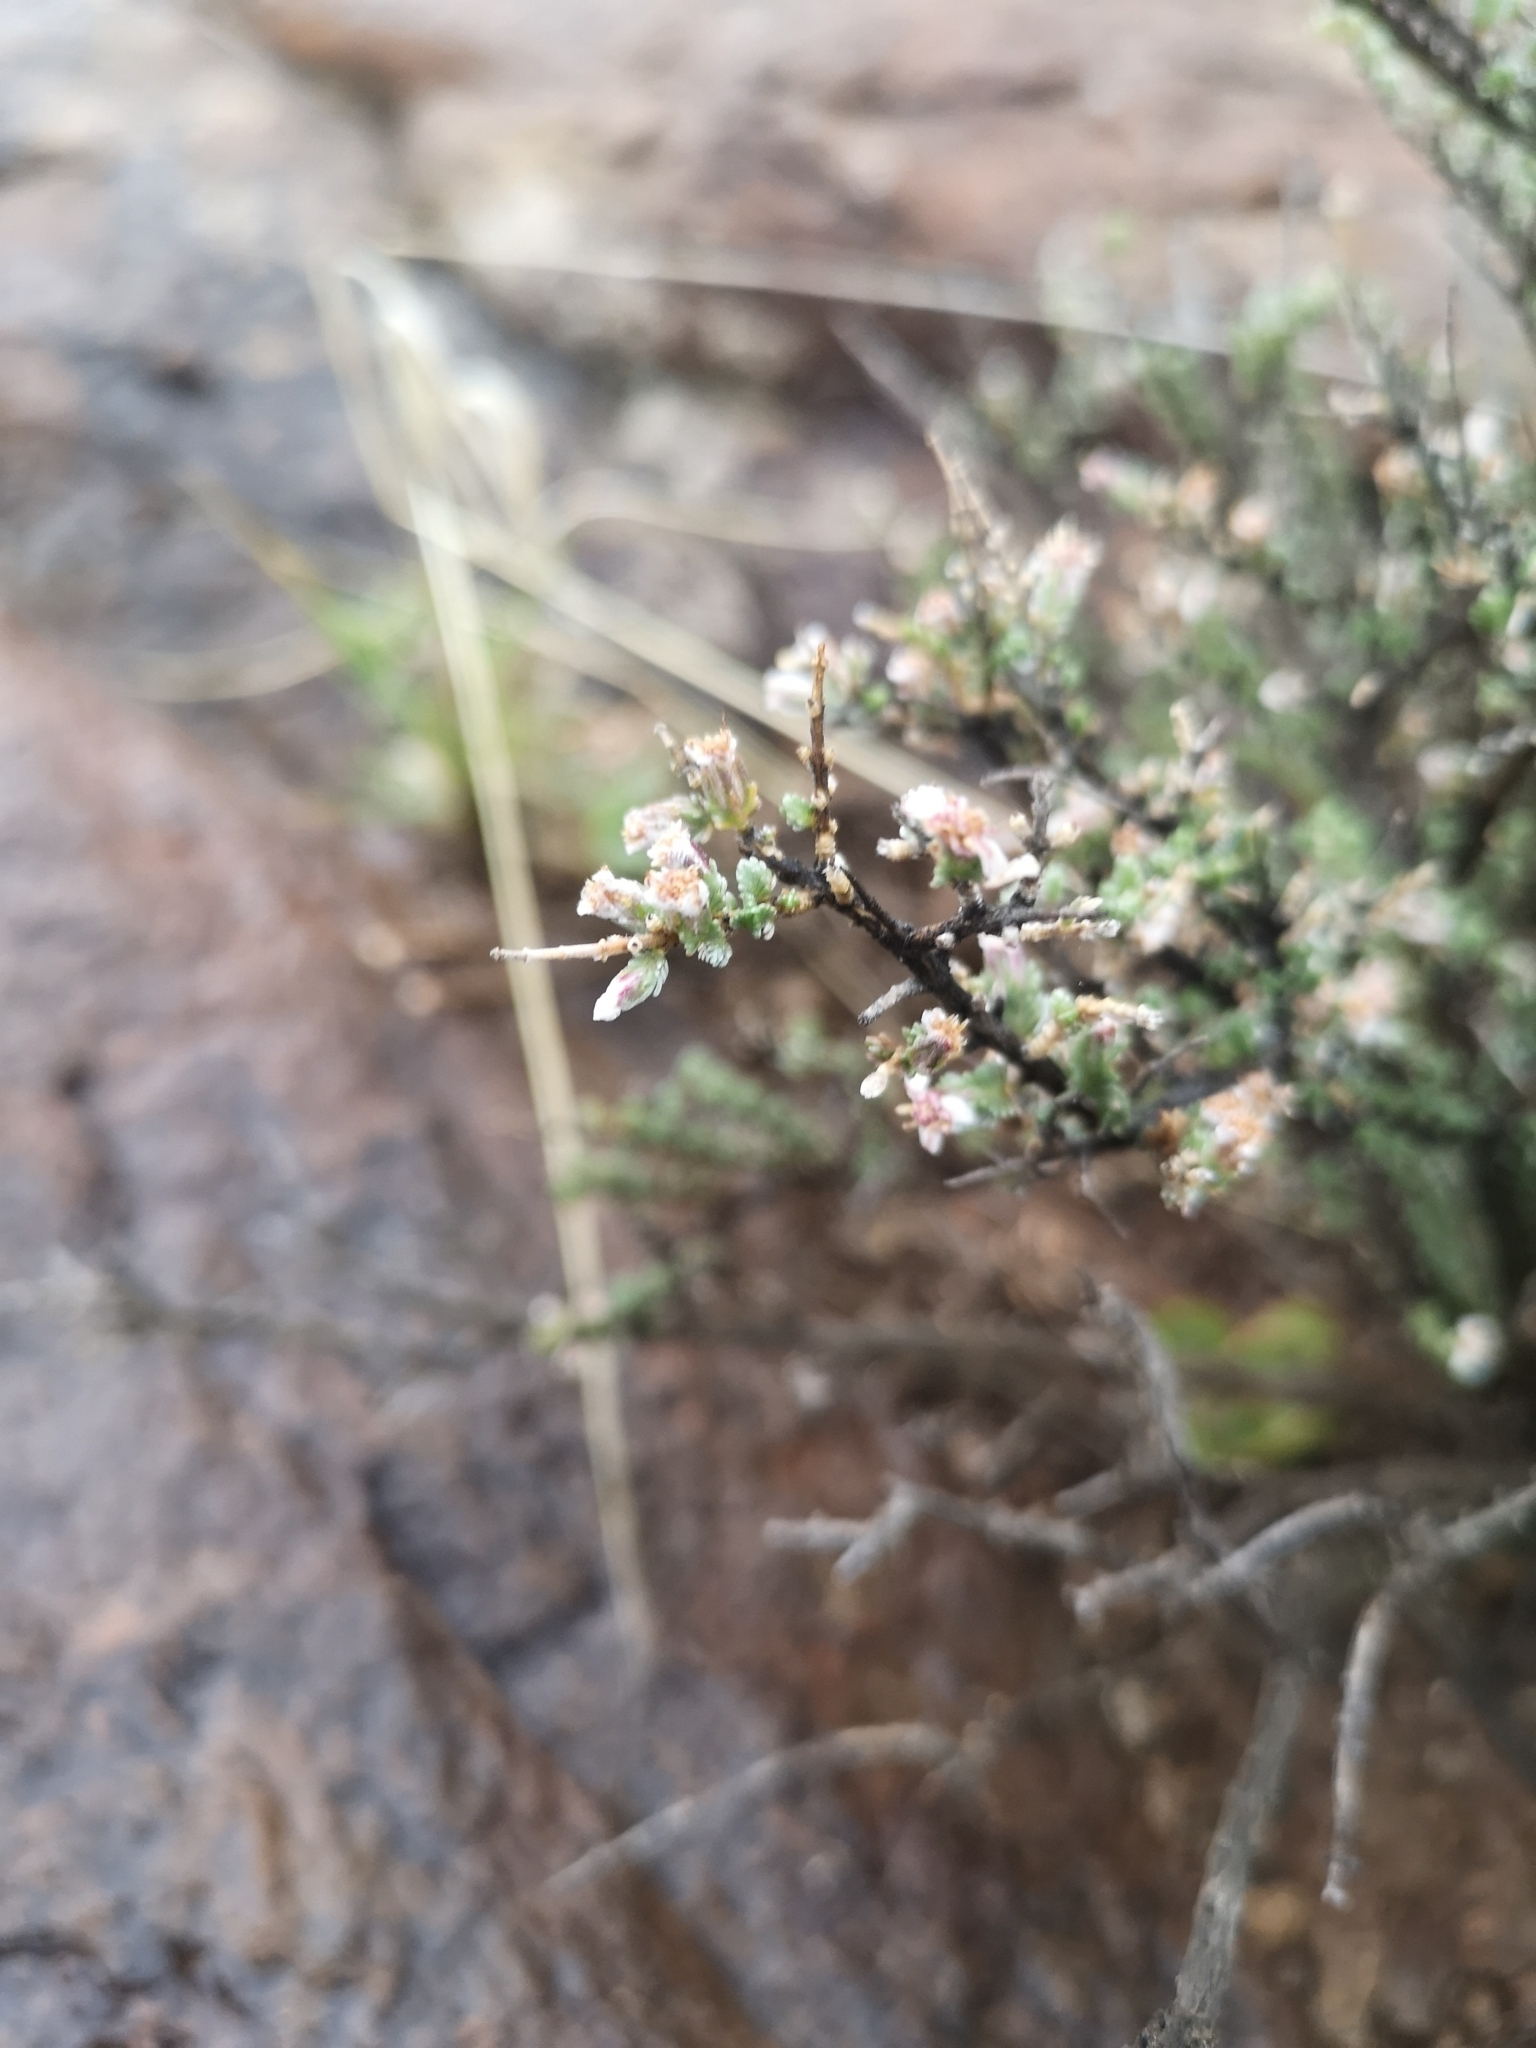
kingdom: Plantae
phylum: Tracheophyta
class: Magnoliopsida
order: Asterales
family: Asteraceae
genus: Eriocephalus
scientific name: Eriocephalus spinescens
